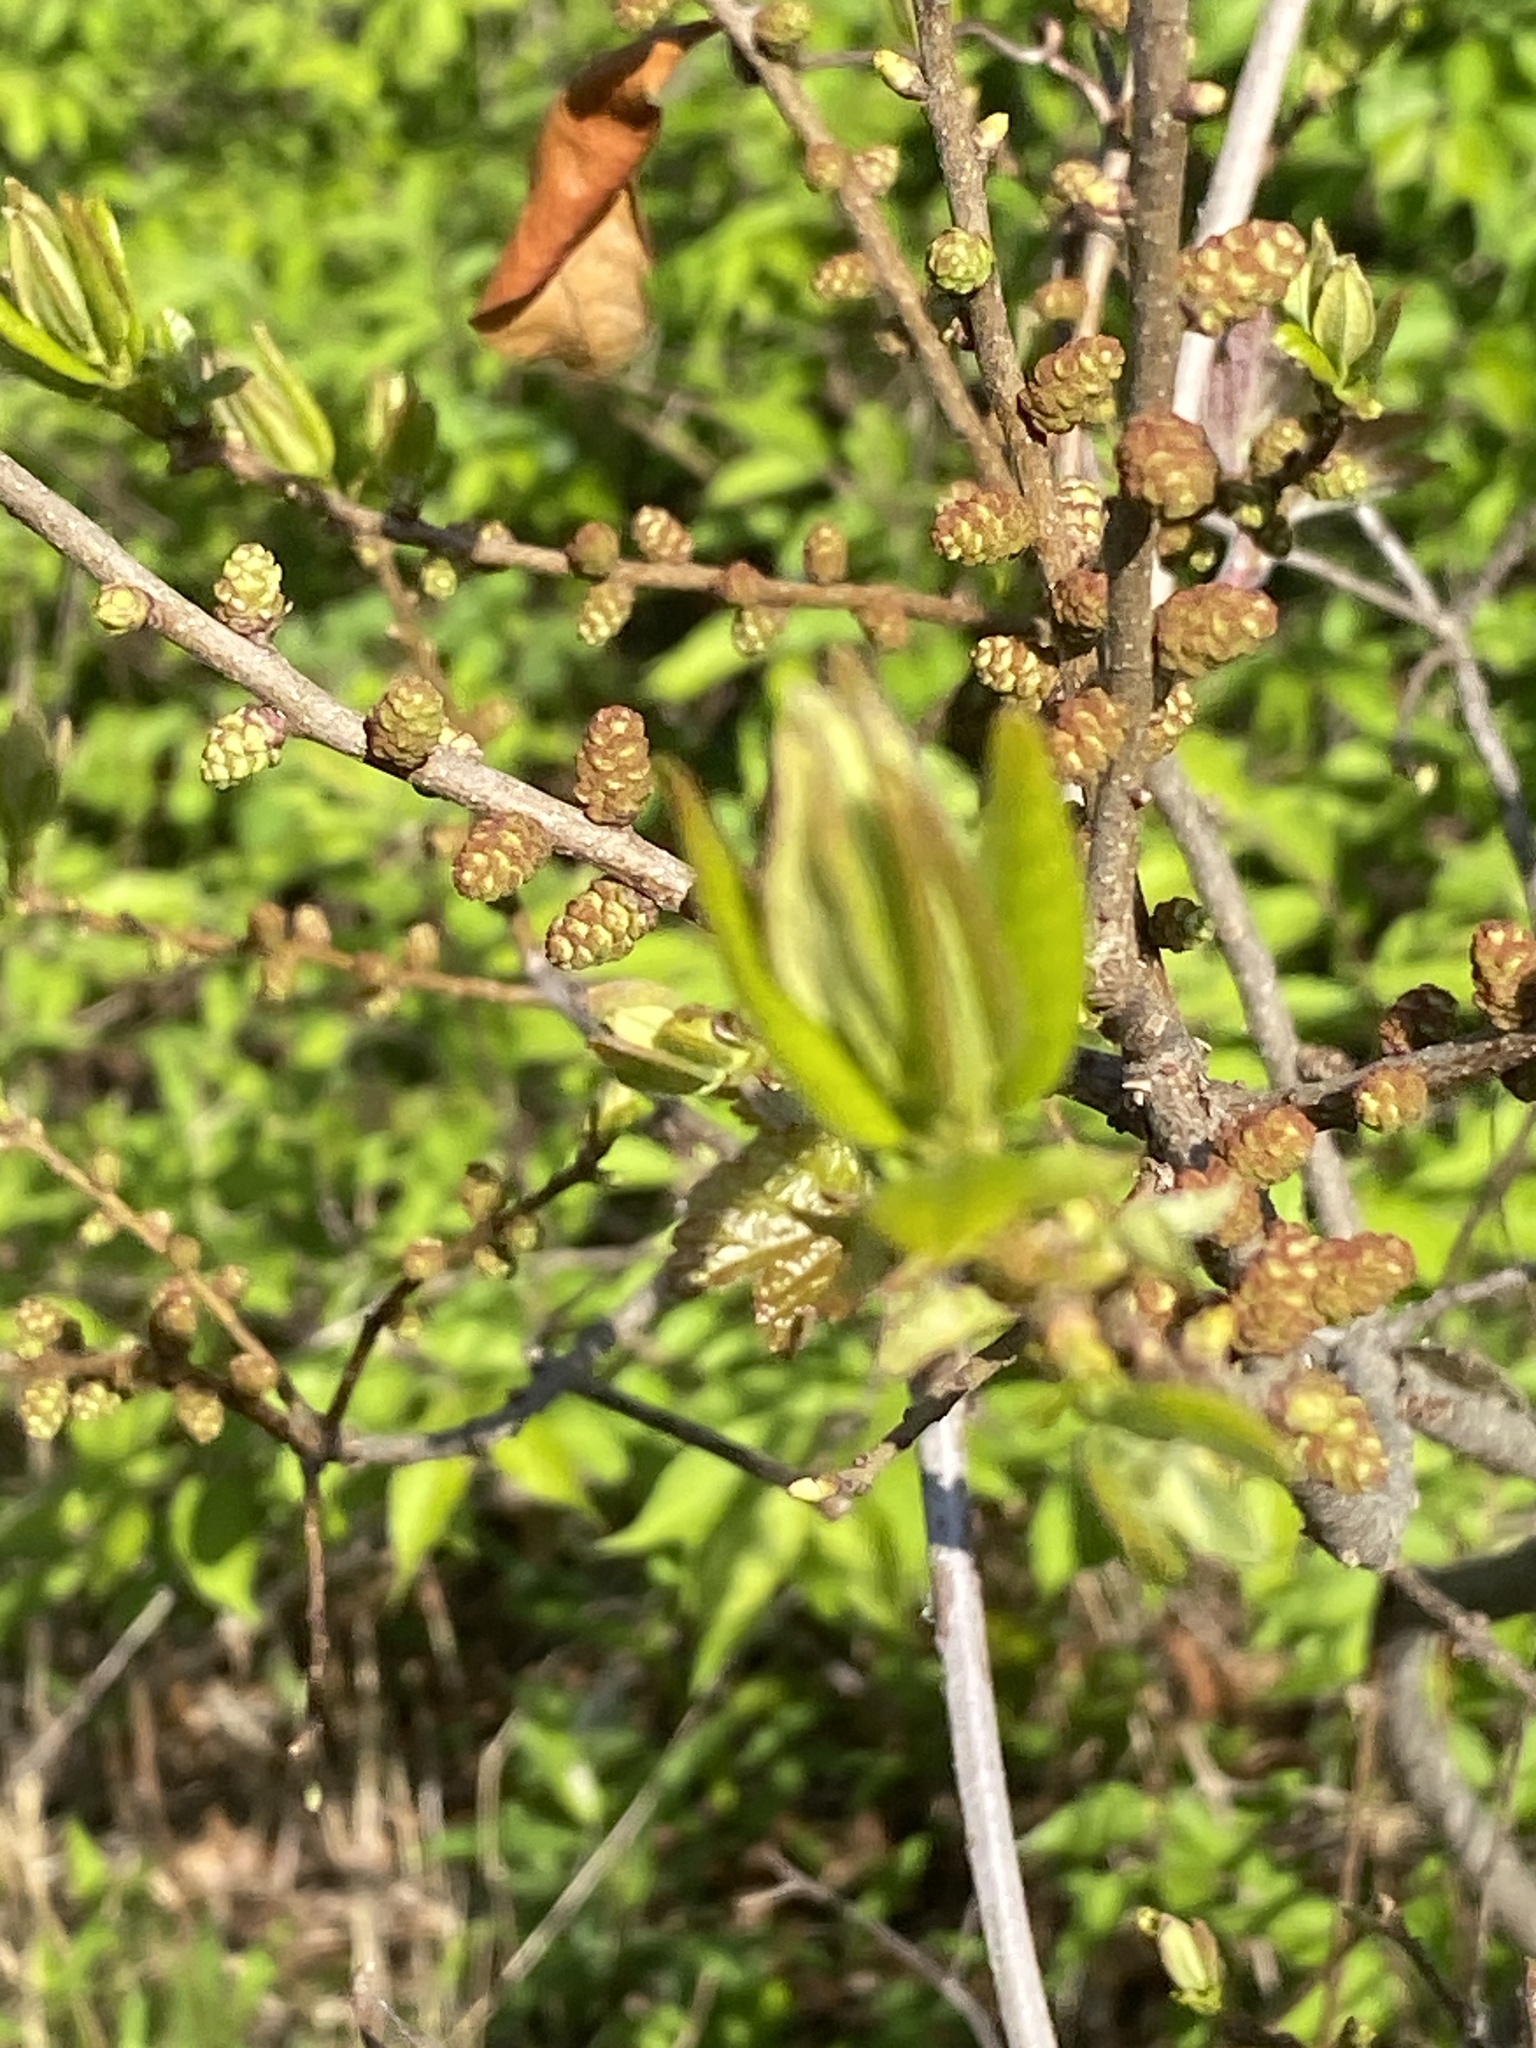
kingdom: Plantae
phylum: Tracheophyta
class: Magnoliopsida
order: Fagales
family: Myricaceae
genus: Morella
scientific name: Morella pensylvanica
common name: Northern bayberry
